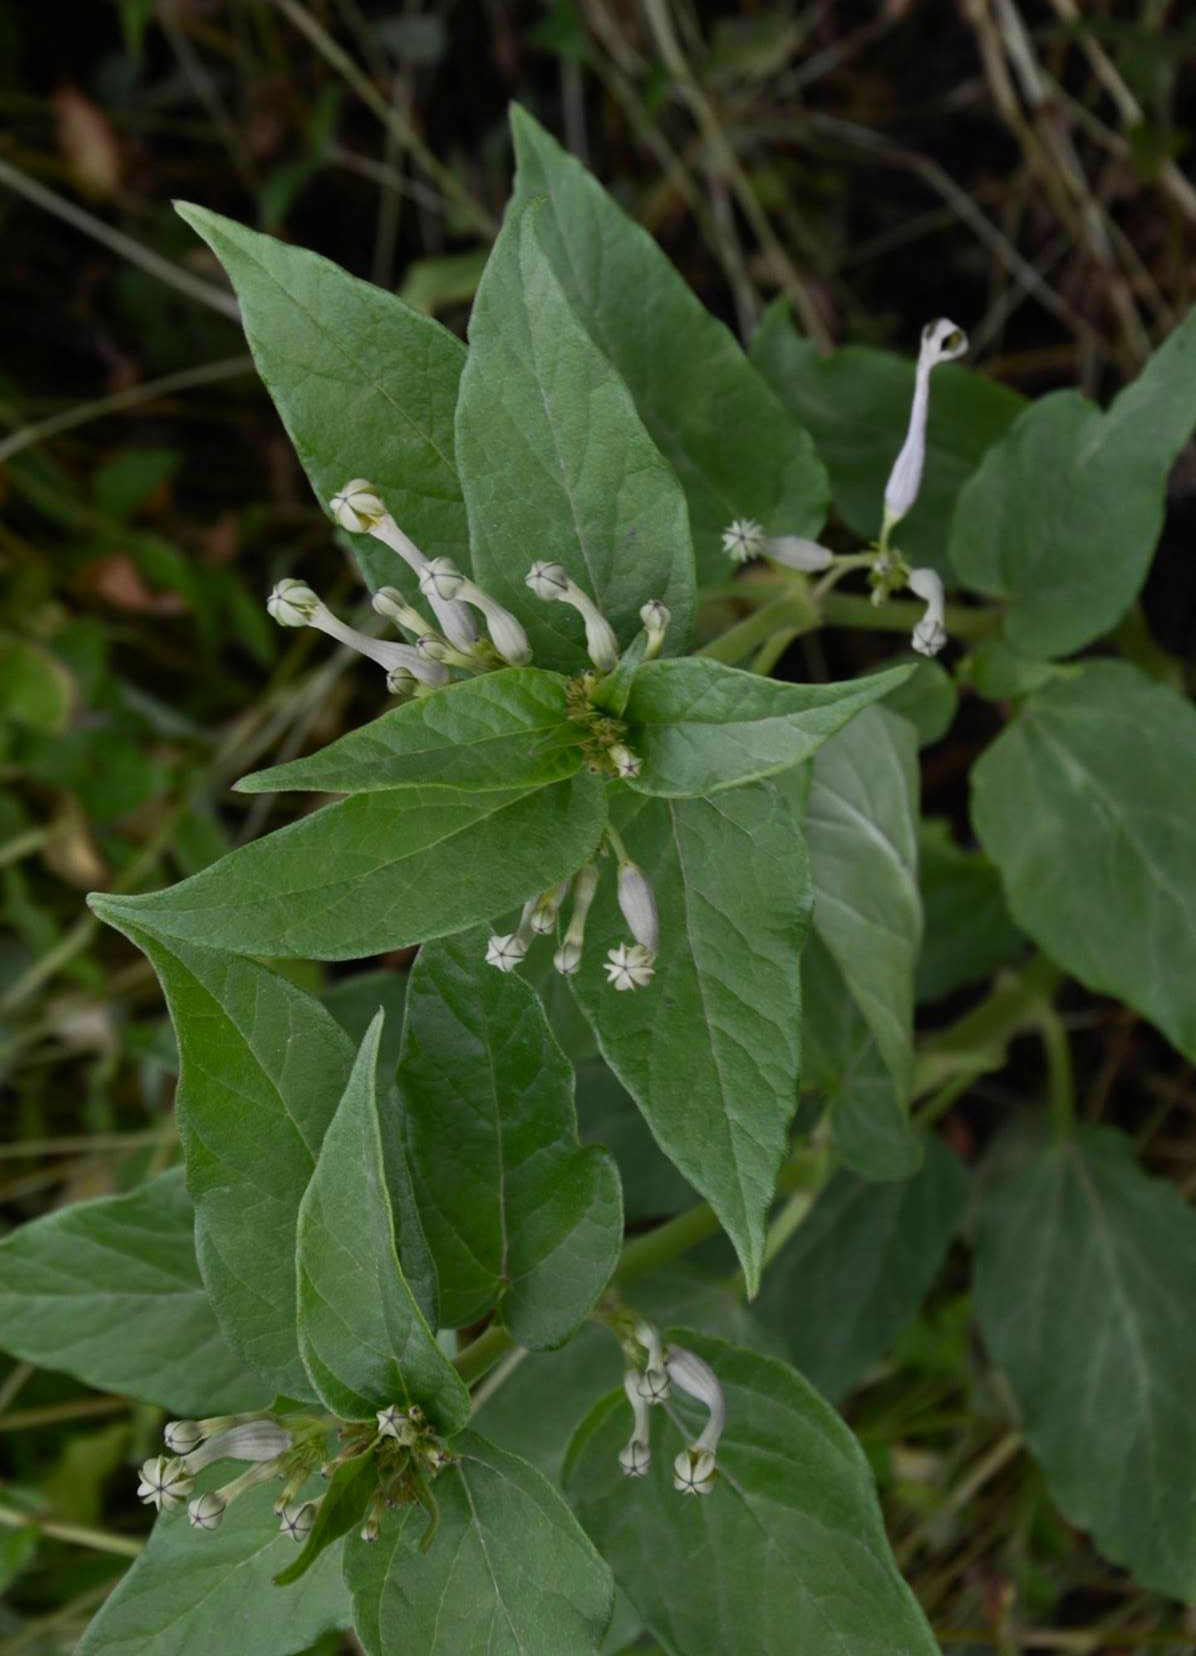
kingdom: Plantae
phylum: Tracheophyta
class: Magnoliopsida
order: Gentianales
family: Apocynaceae
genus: Ceropegia
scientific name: Ceropegia lawii
